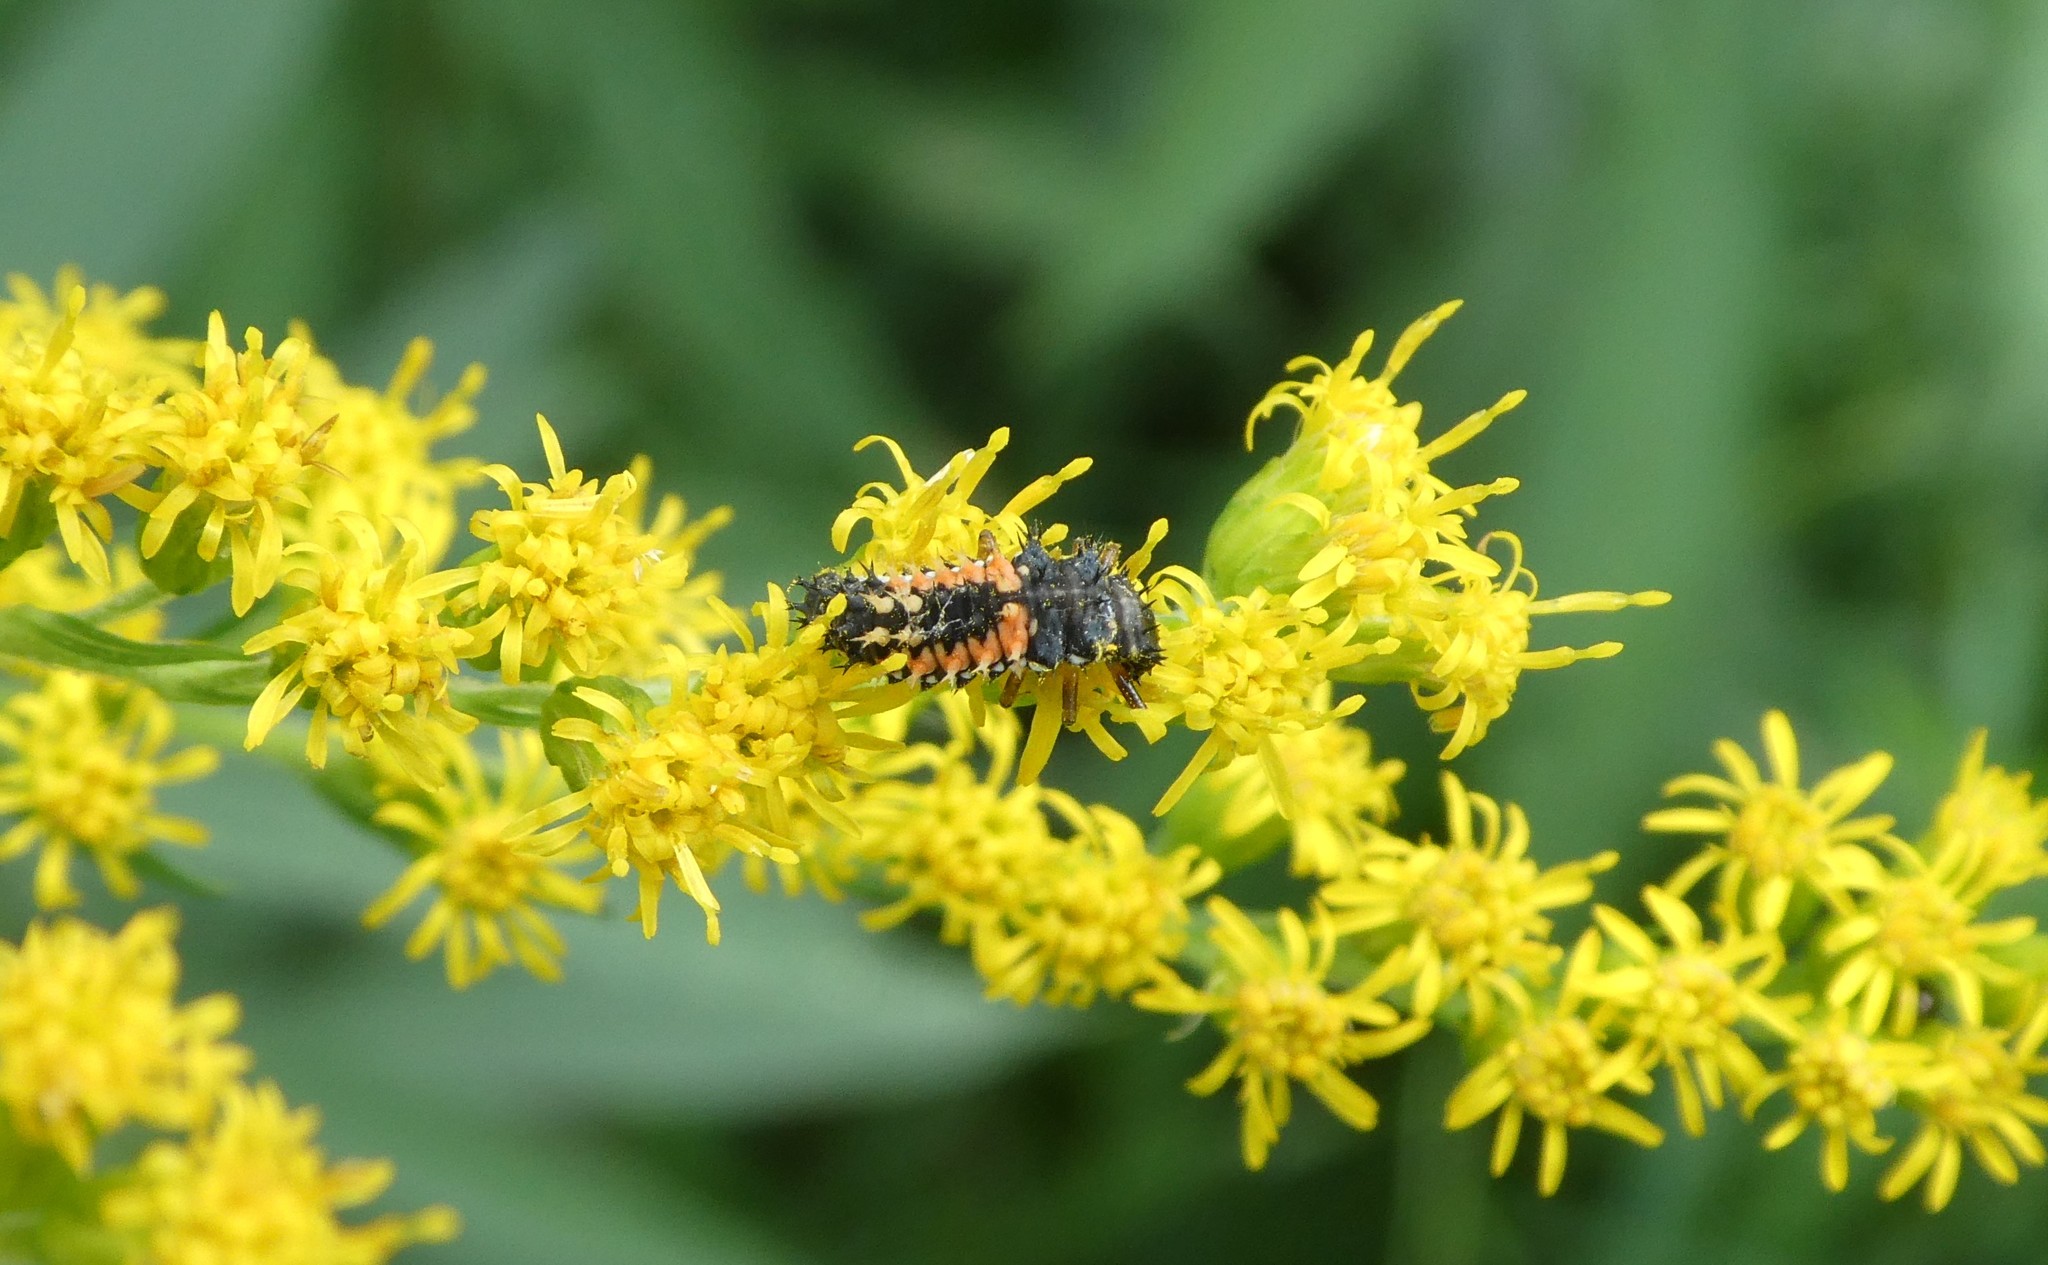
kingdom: Animalia
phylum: Arthropoda
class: Insecta
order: Coleoptera
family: Coccinellidae
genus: Harmonia
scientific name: Harmonia axyridis
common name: Harlequin ladybird
